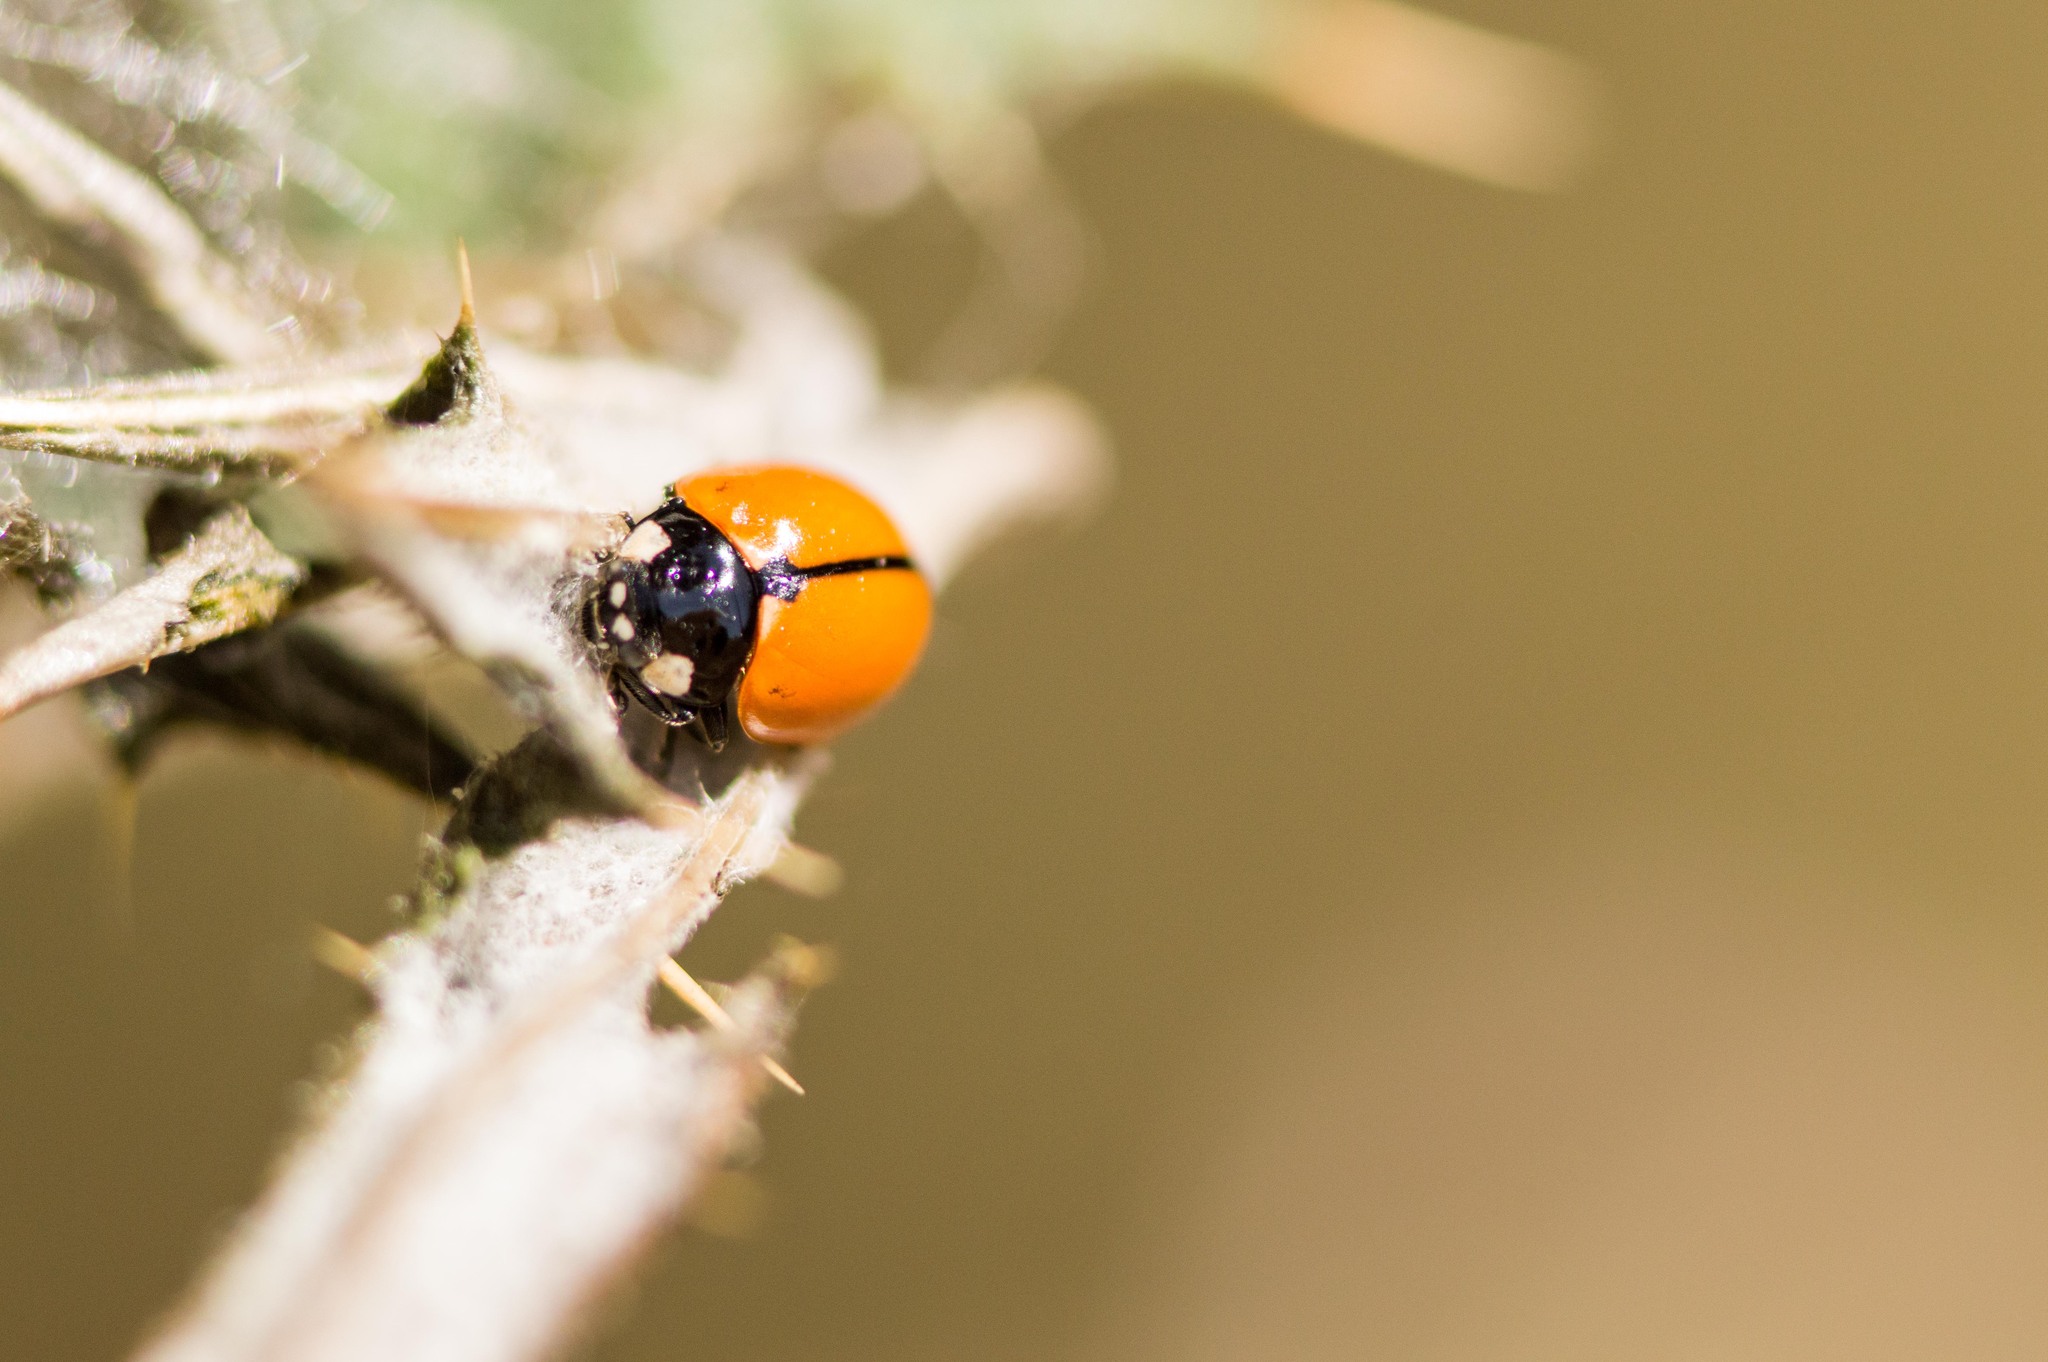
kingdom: Animalia
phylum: Arthropoda
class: Insecta
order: Coleoptera
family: Coccinellidae
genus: Coccinella
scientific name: Coccinella californica
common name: Lady beetle
